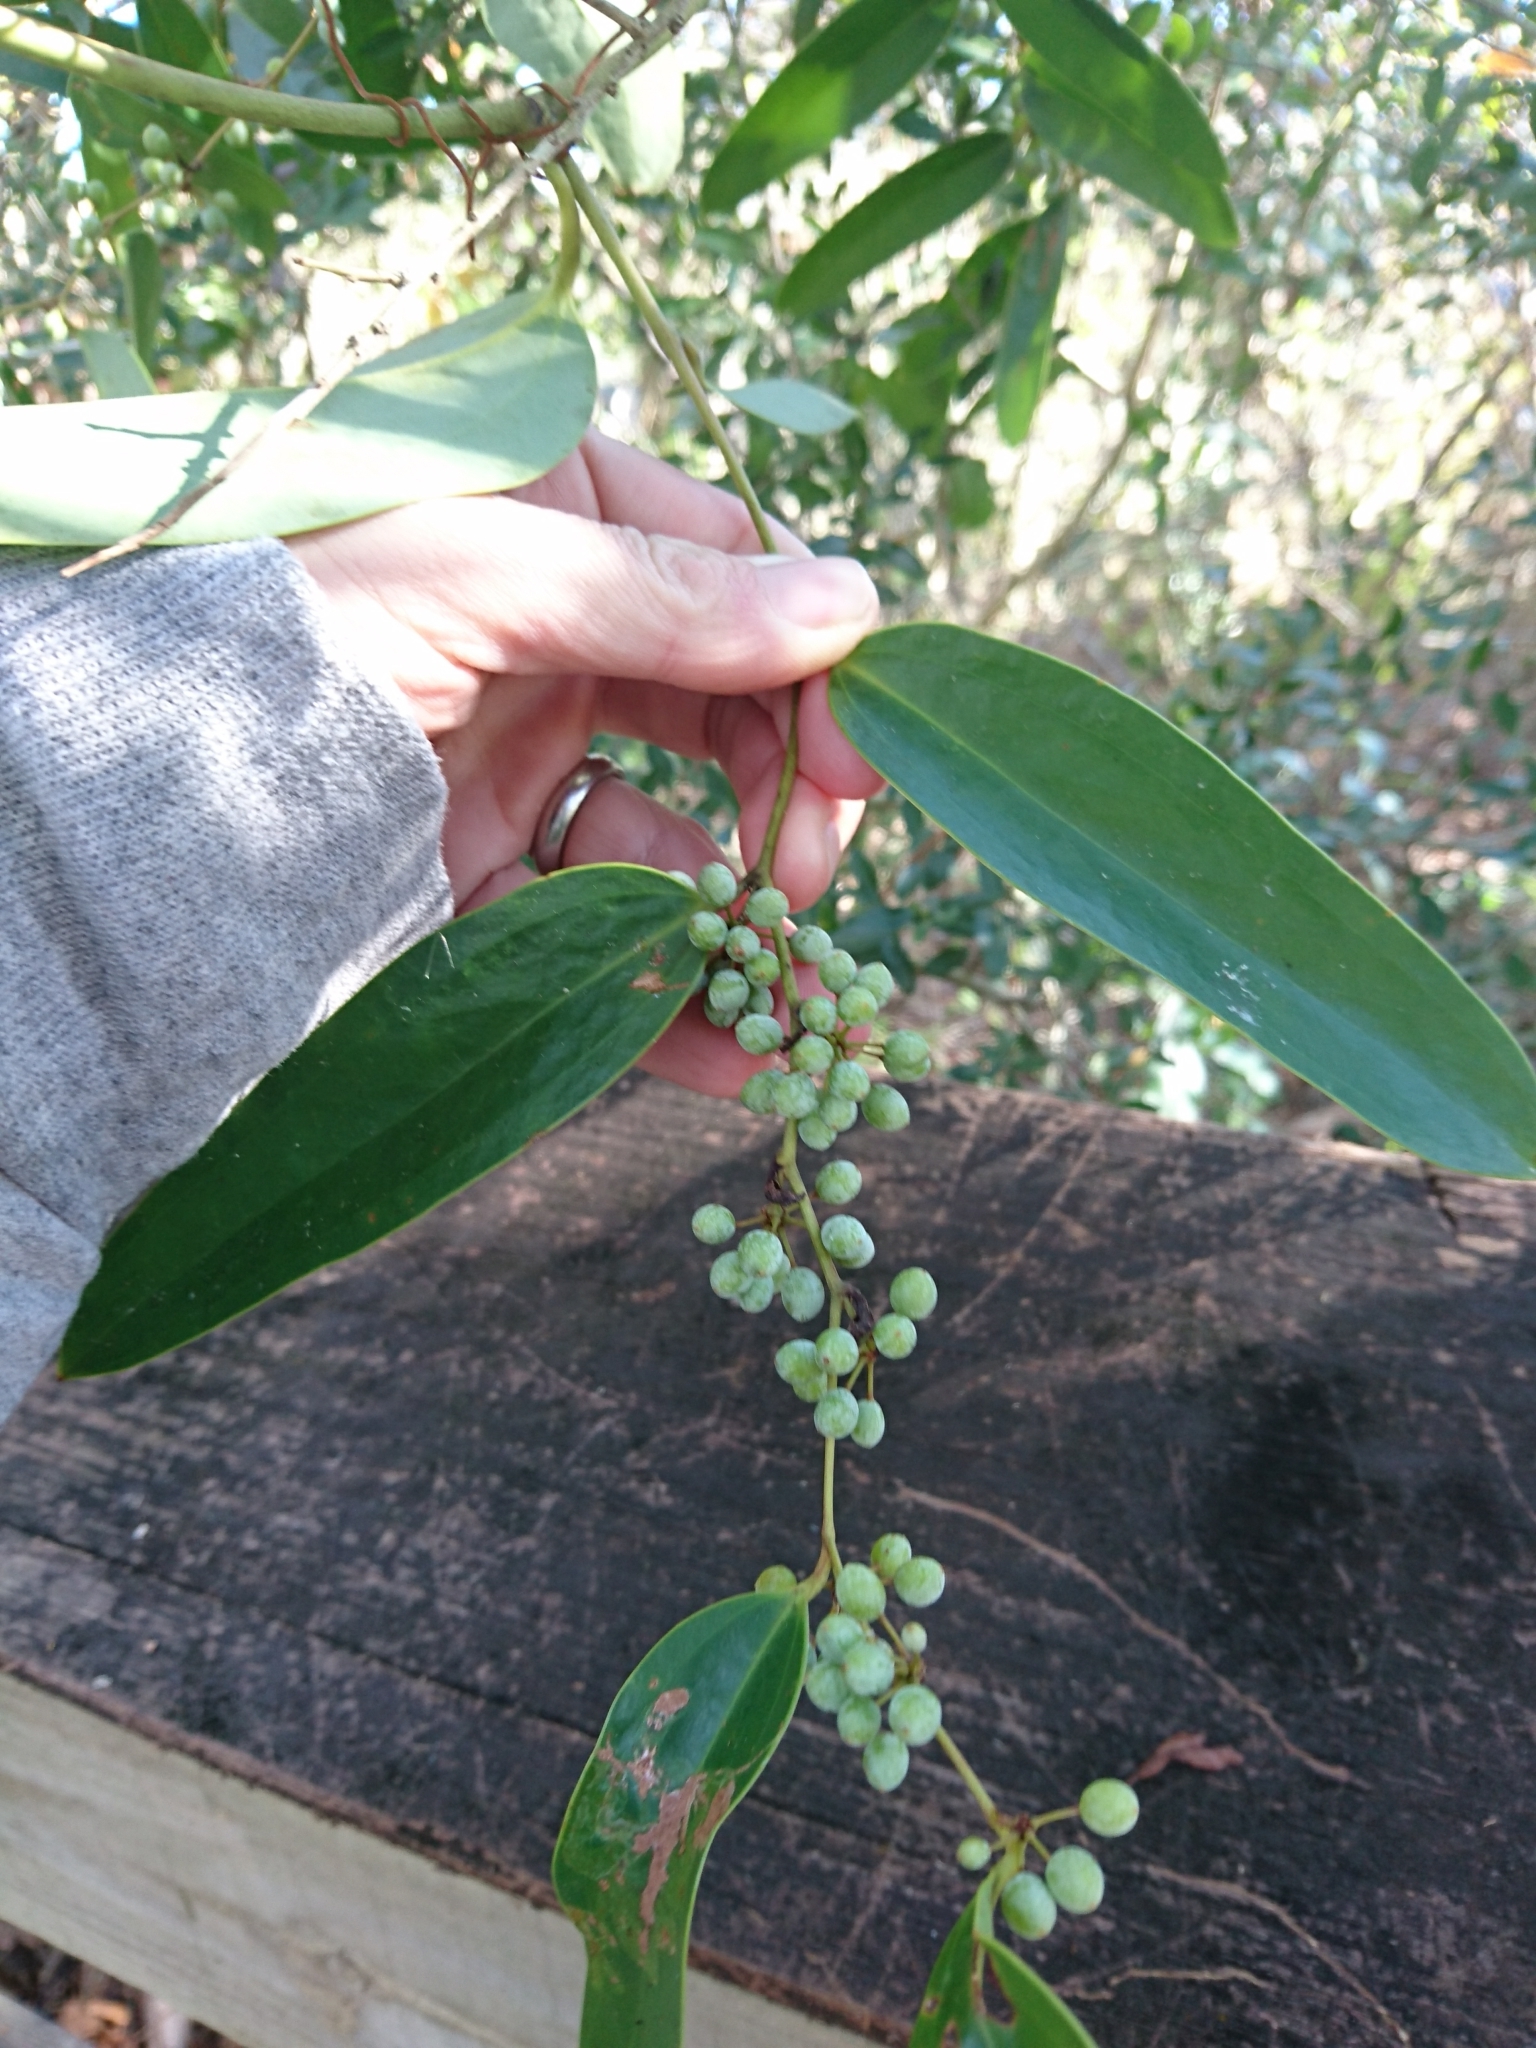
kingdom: Plantae
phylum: Tracheophyta
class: Liliopsida
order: Liliales
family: Smilacaceae
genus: Smilax
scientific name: Smilax laurifolia
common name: Bamboovine
